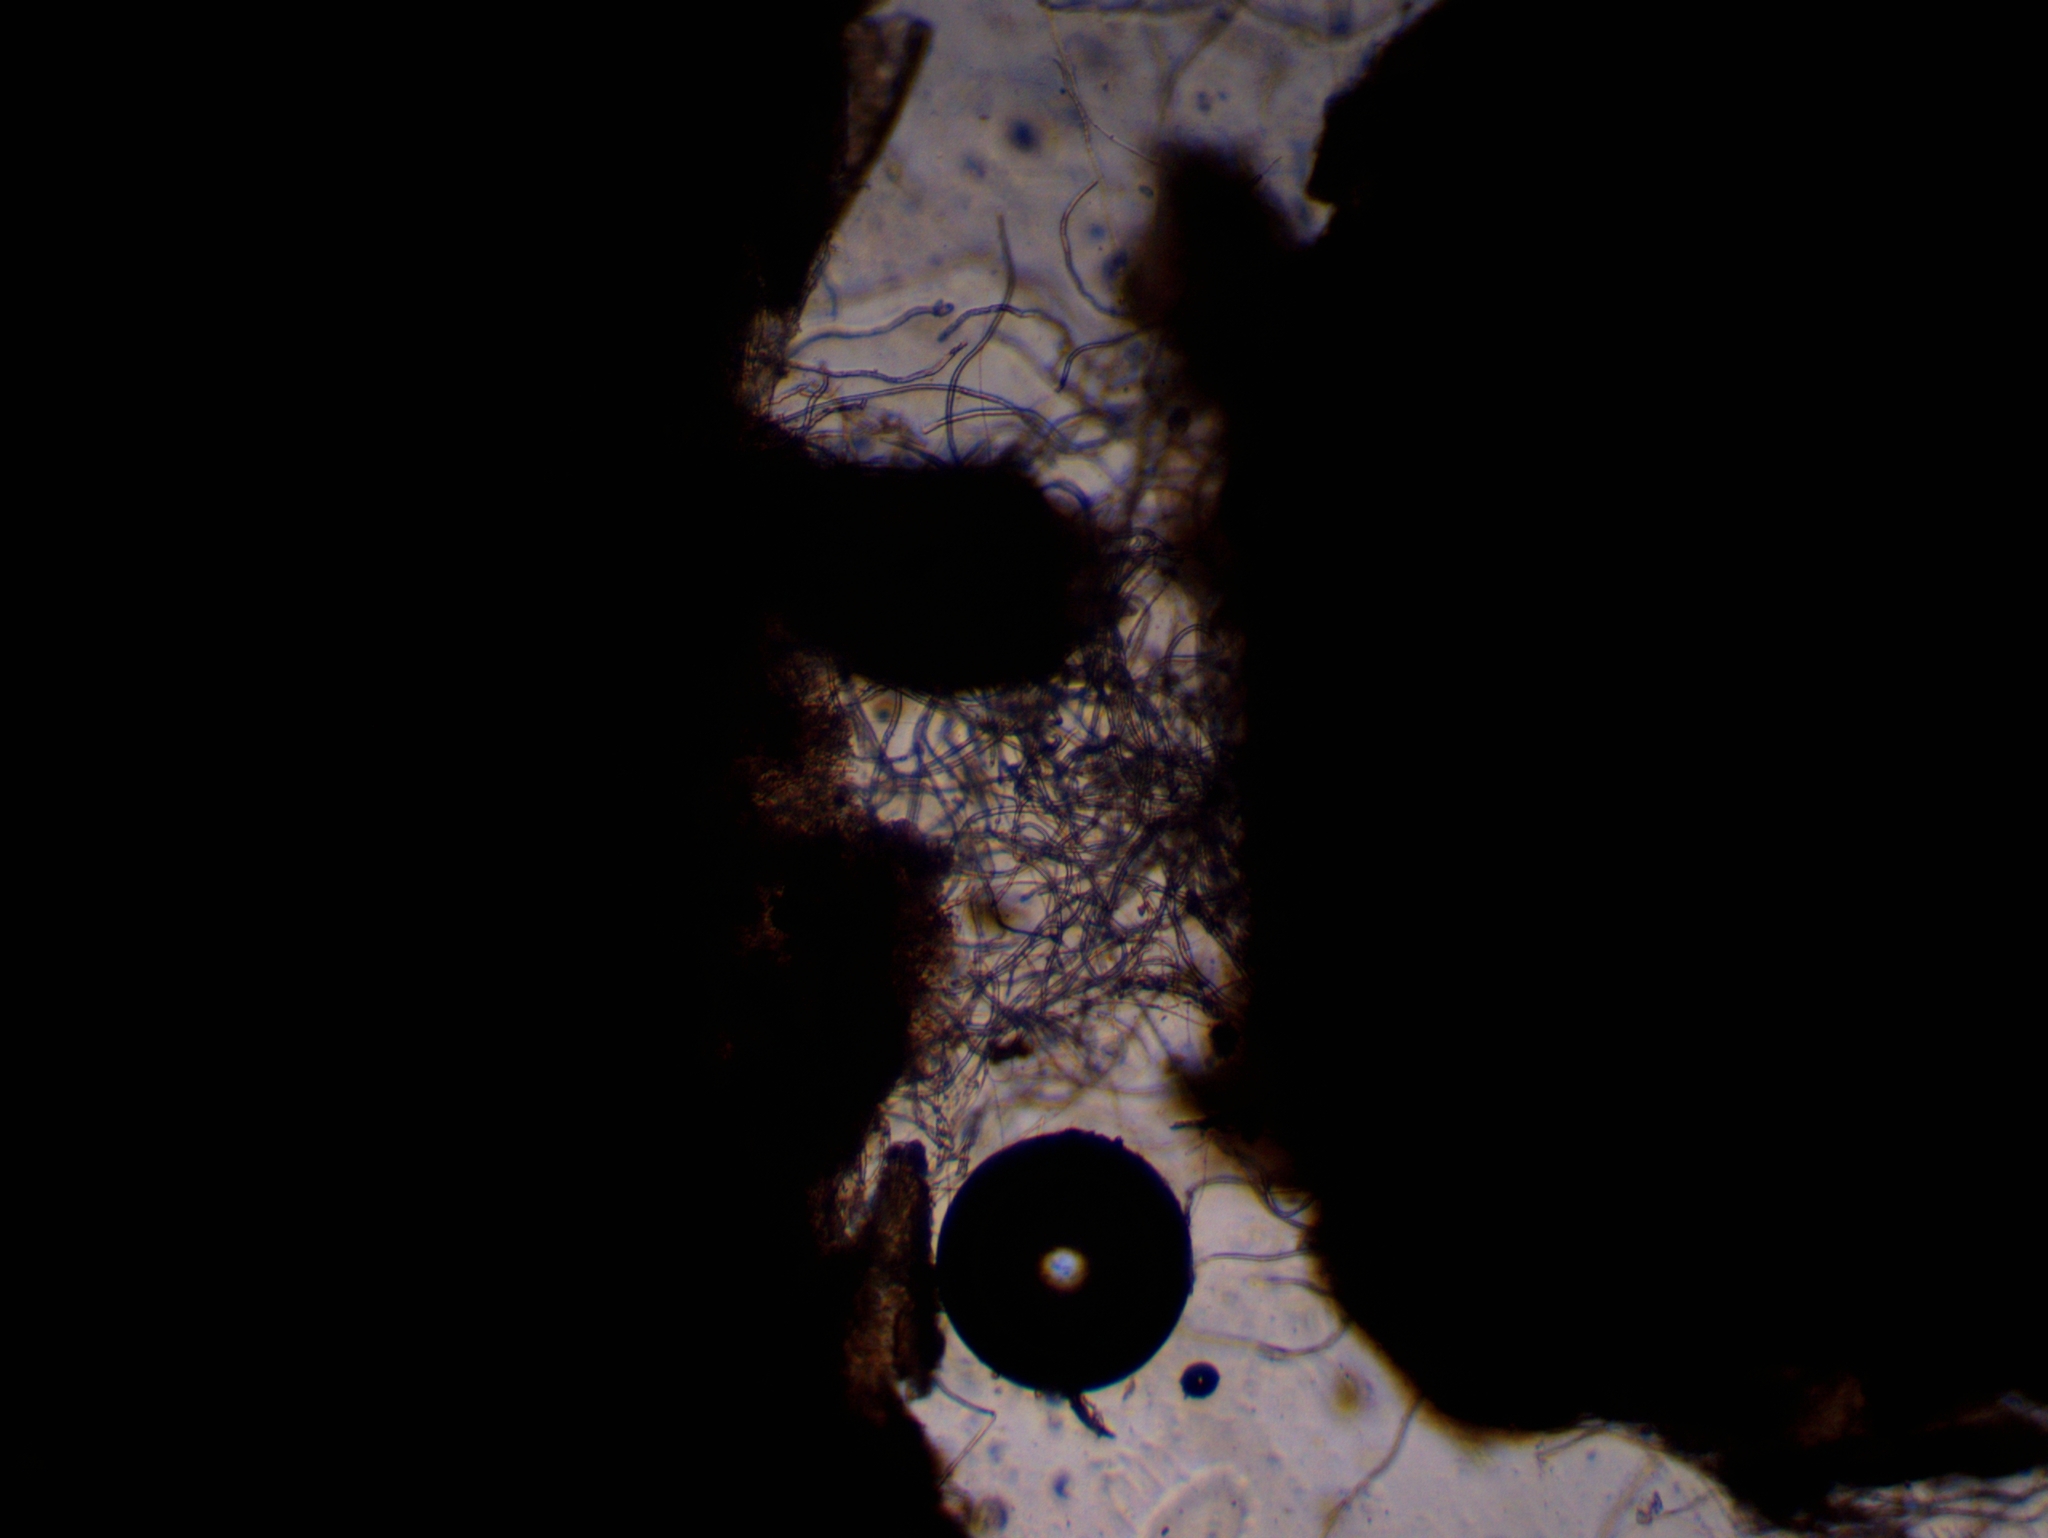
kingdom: Fungi
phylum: Ascomycota
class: Sordariomycetes
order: Hypocreales
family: Cordycipitaceae
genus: Lecanicillium
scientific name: Lecanicillium saksenae
